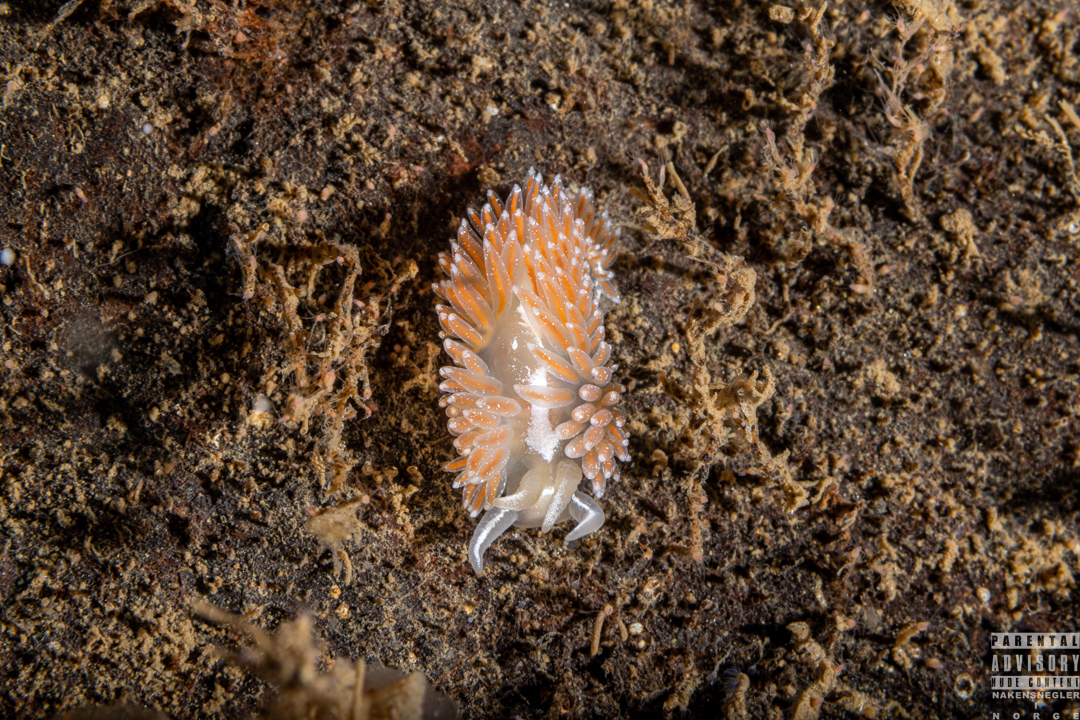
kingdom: Animalia
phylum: Mollusca
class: Gastropoda
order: Nudibranchia
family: Coryphellidae
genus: Coryphella
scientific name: Coryphella monicae
